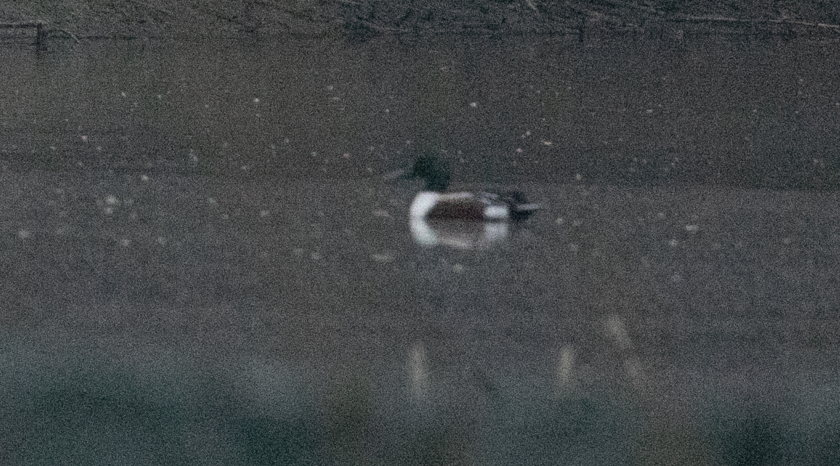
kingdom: Animalia
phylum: Chordata
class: Aves
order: Anseriformes
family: Anatidae
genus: Spatula
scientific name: Spatula clypeata
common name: Northern shoveler
